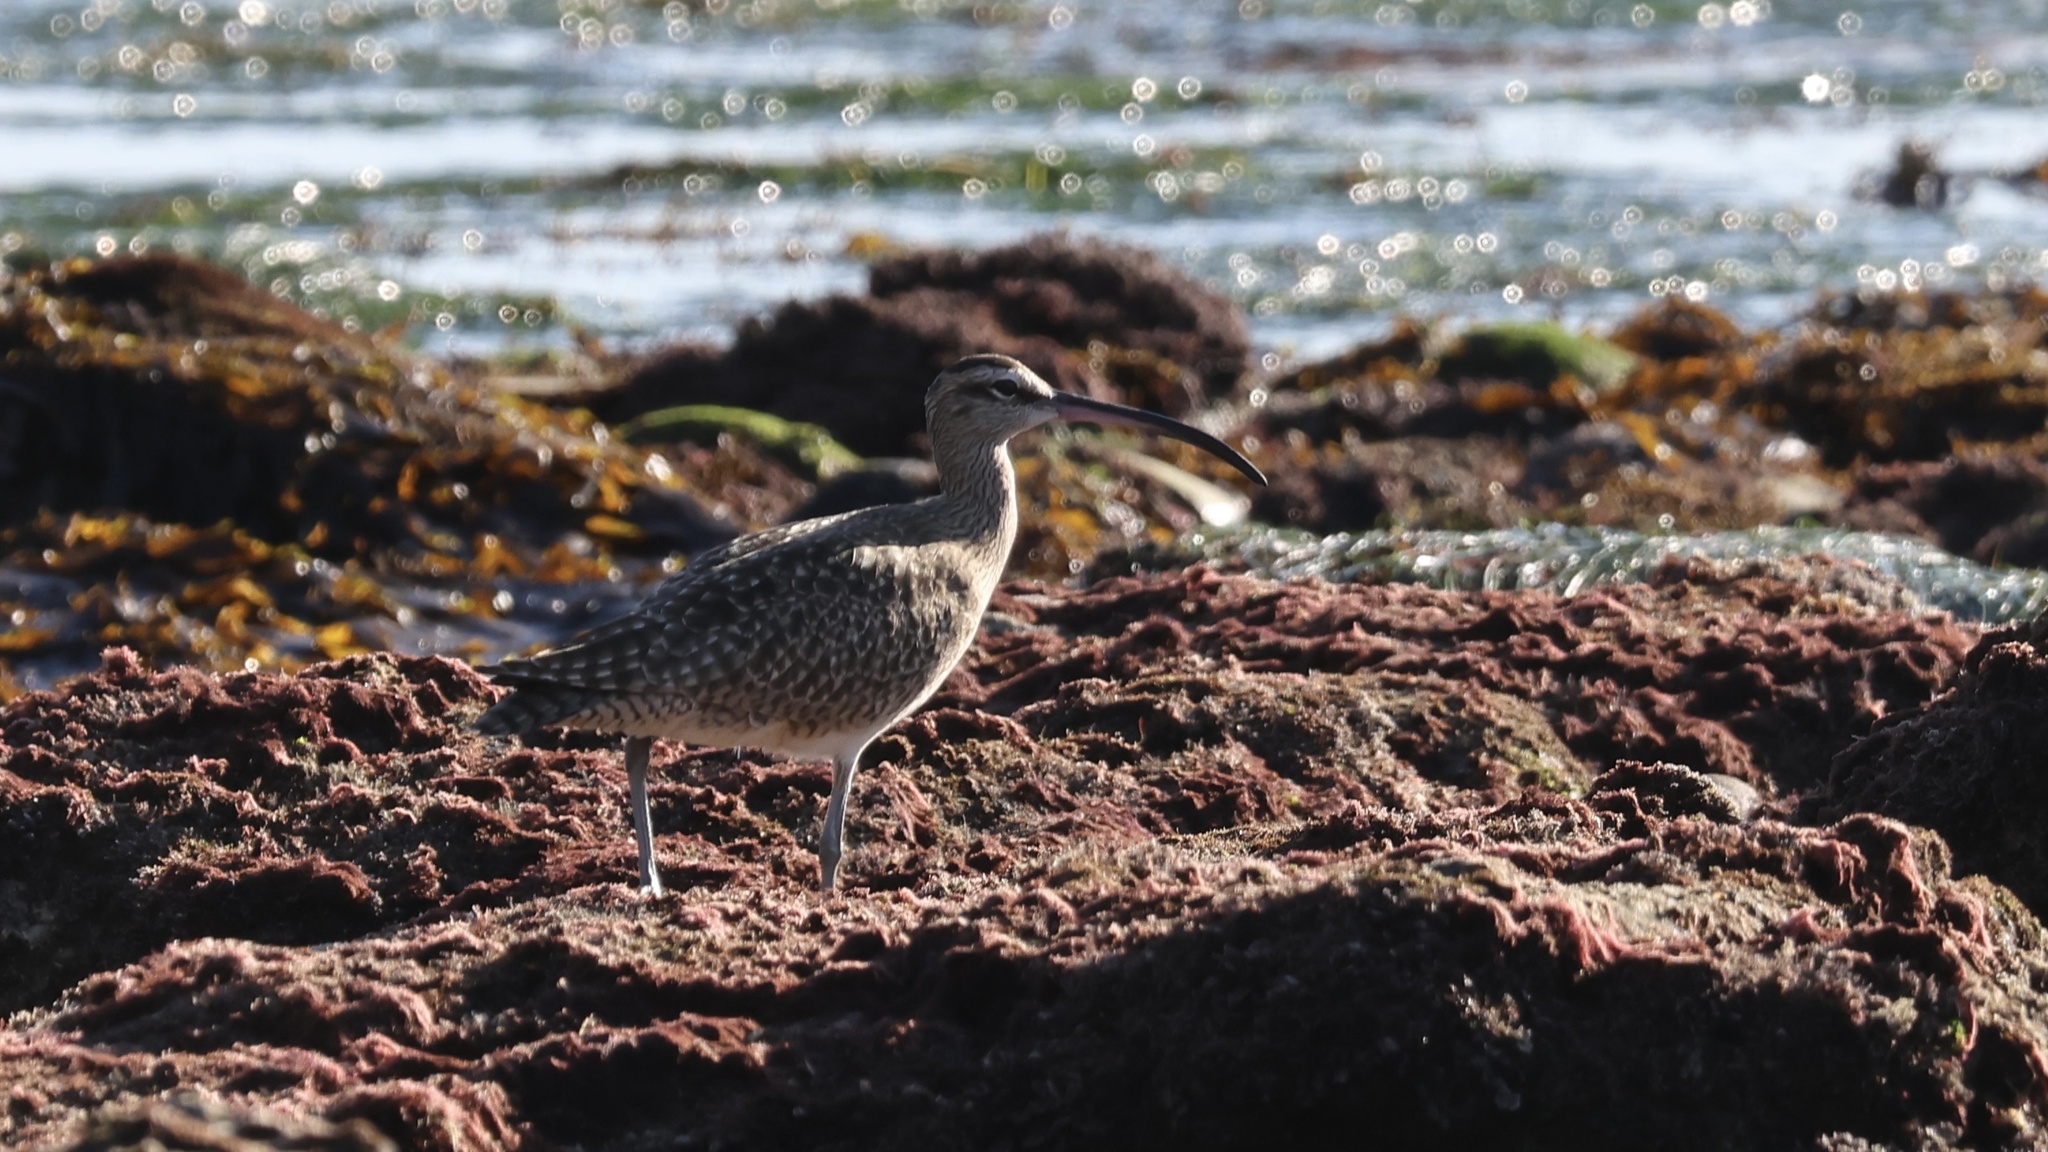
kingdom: Animalia
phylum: Chordata
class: Aves
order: Charadriiformes
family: Scolopacidae
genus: Numenius
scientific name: Numenius phaeopus
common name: Whimbrel
